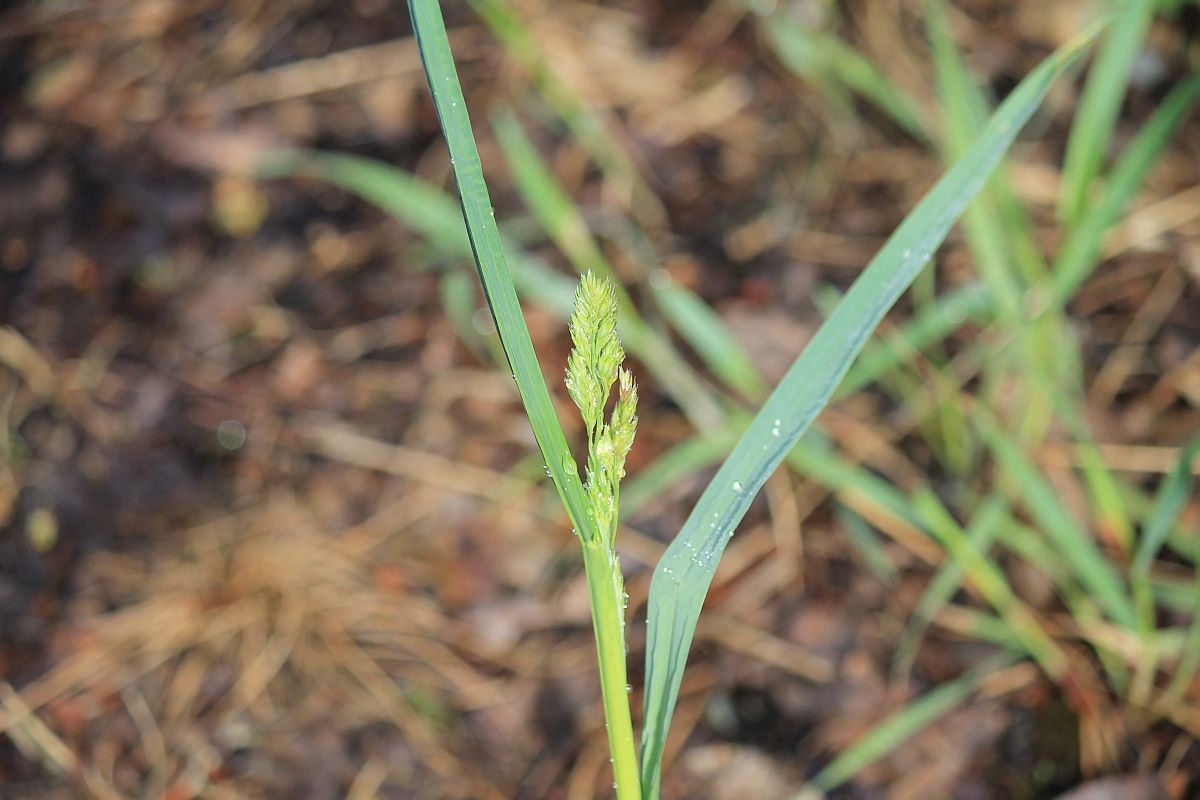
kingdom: Plantae
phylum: Tracheophyta
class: Liliopsida
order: Poales
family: Poaceae
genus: Dactylis
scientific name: Dactylis glomerata
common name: Orchardgrass
